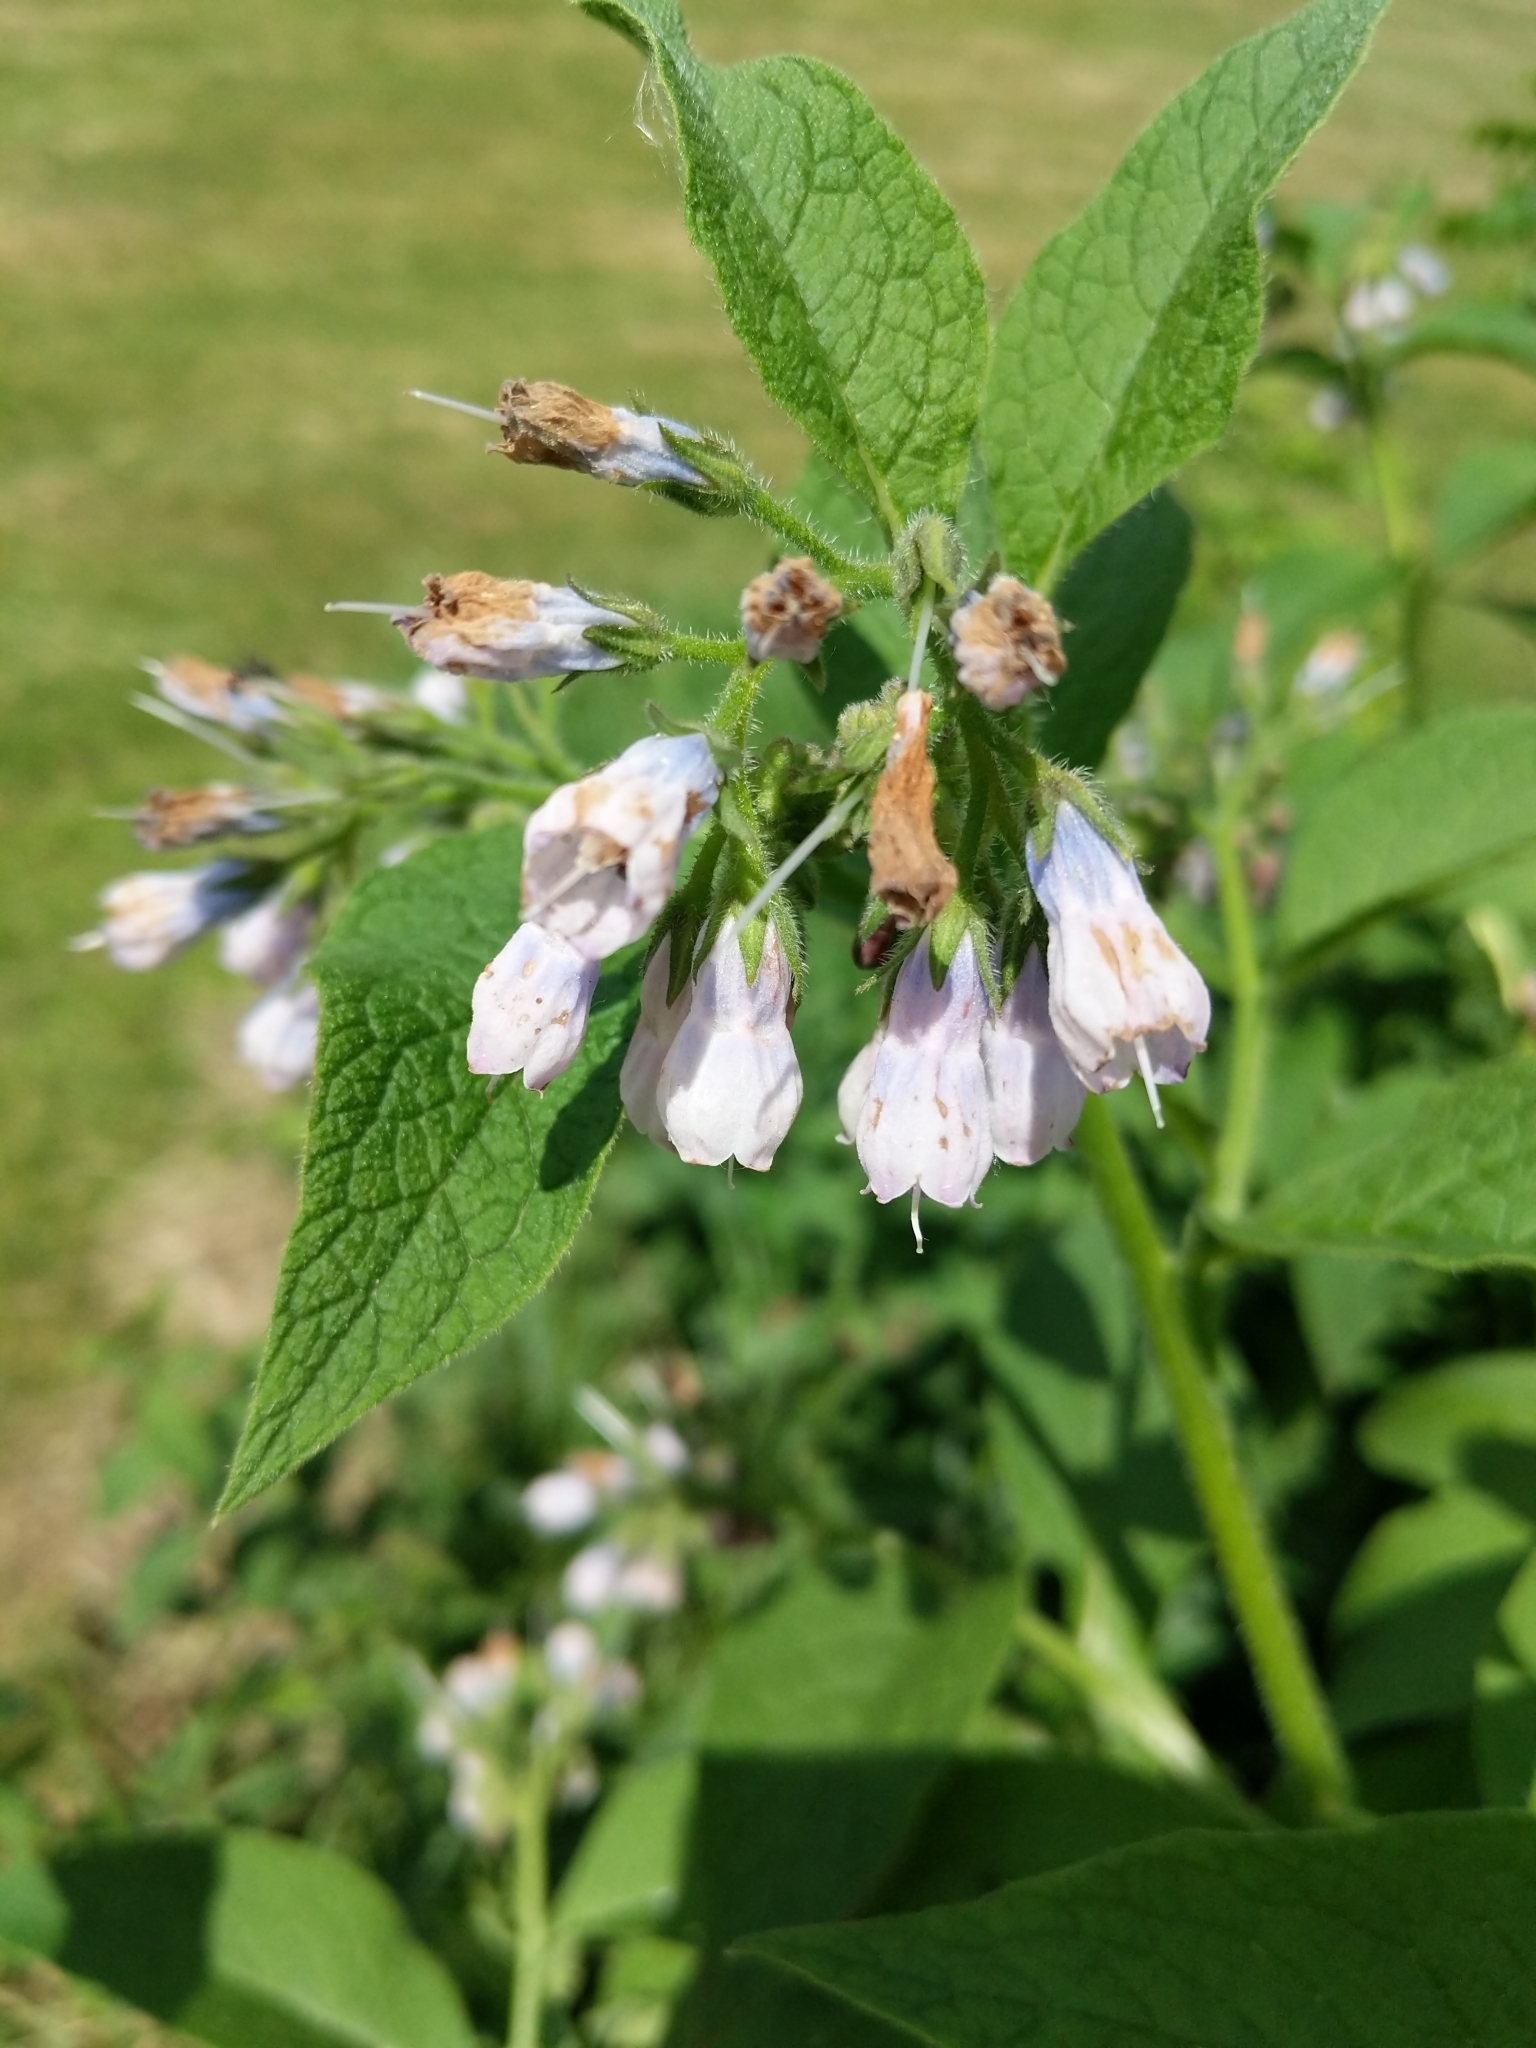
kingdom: Plantae
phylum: Tracheophyta
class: Magnoliopsida
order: Boraginales
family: Boraginaceae
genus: Symphytum
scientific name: Symphytum officinale
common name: Common comfrey
